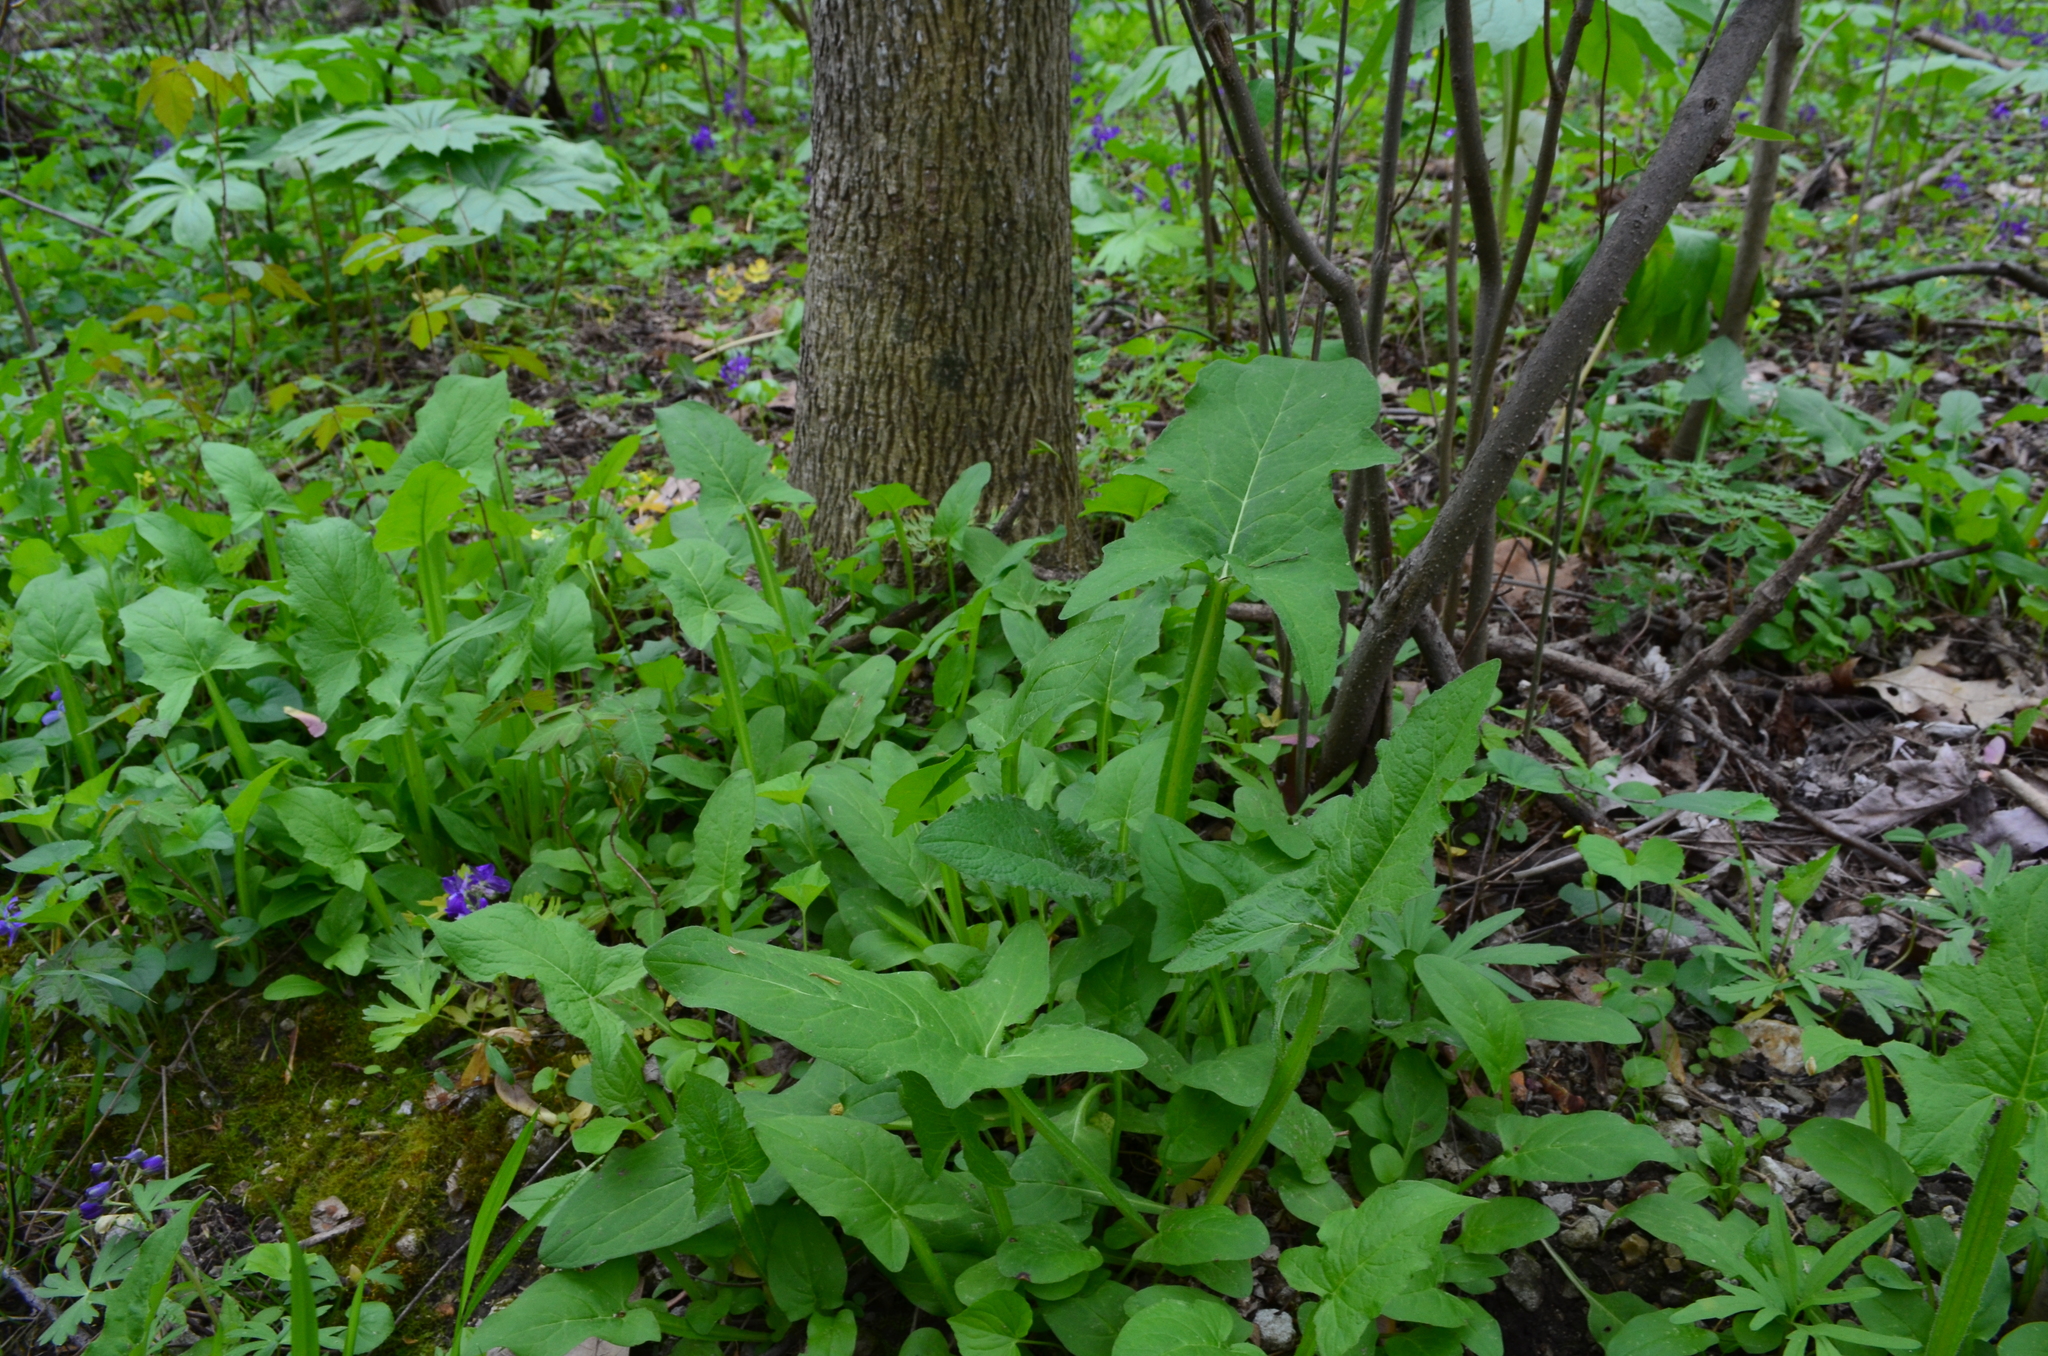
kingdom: Plantae
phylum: Tracheophyta
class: Magnoliopsida
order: Asterales
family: Asteraceae
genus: Nabalus
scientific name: Nabalus crepidineus
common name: Nodding rattlesnakeroot
